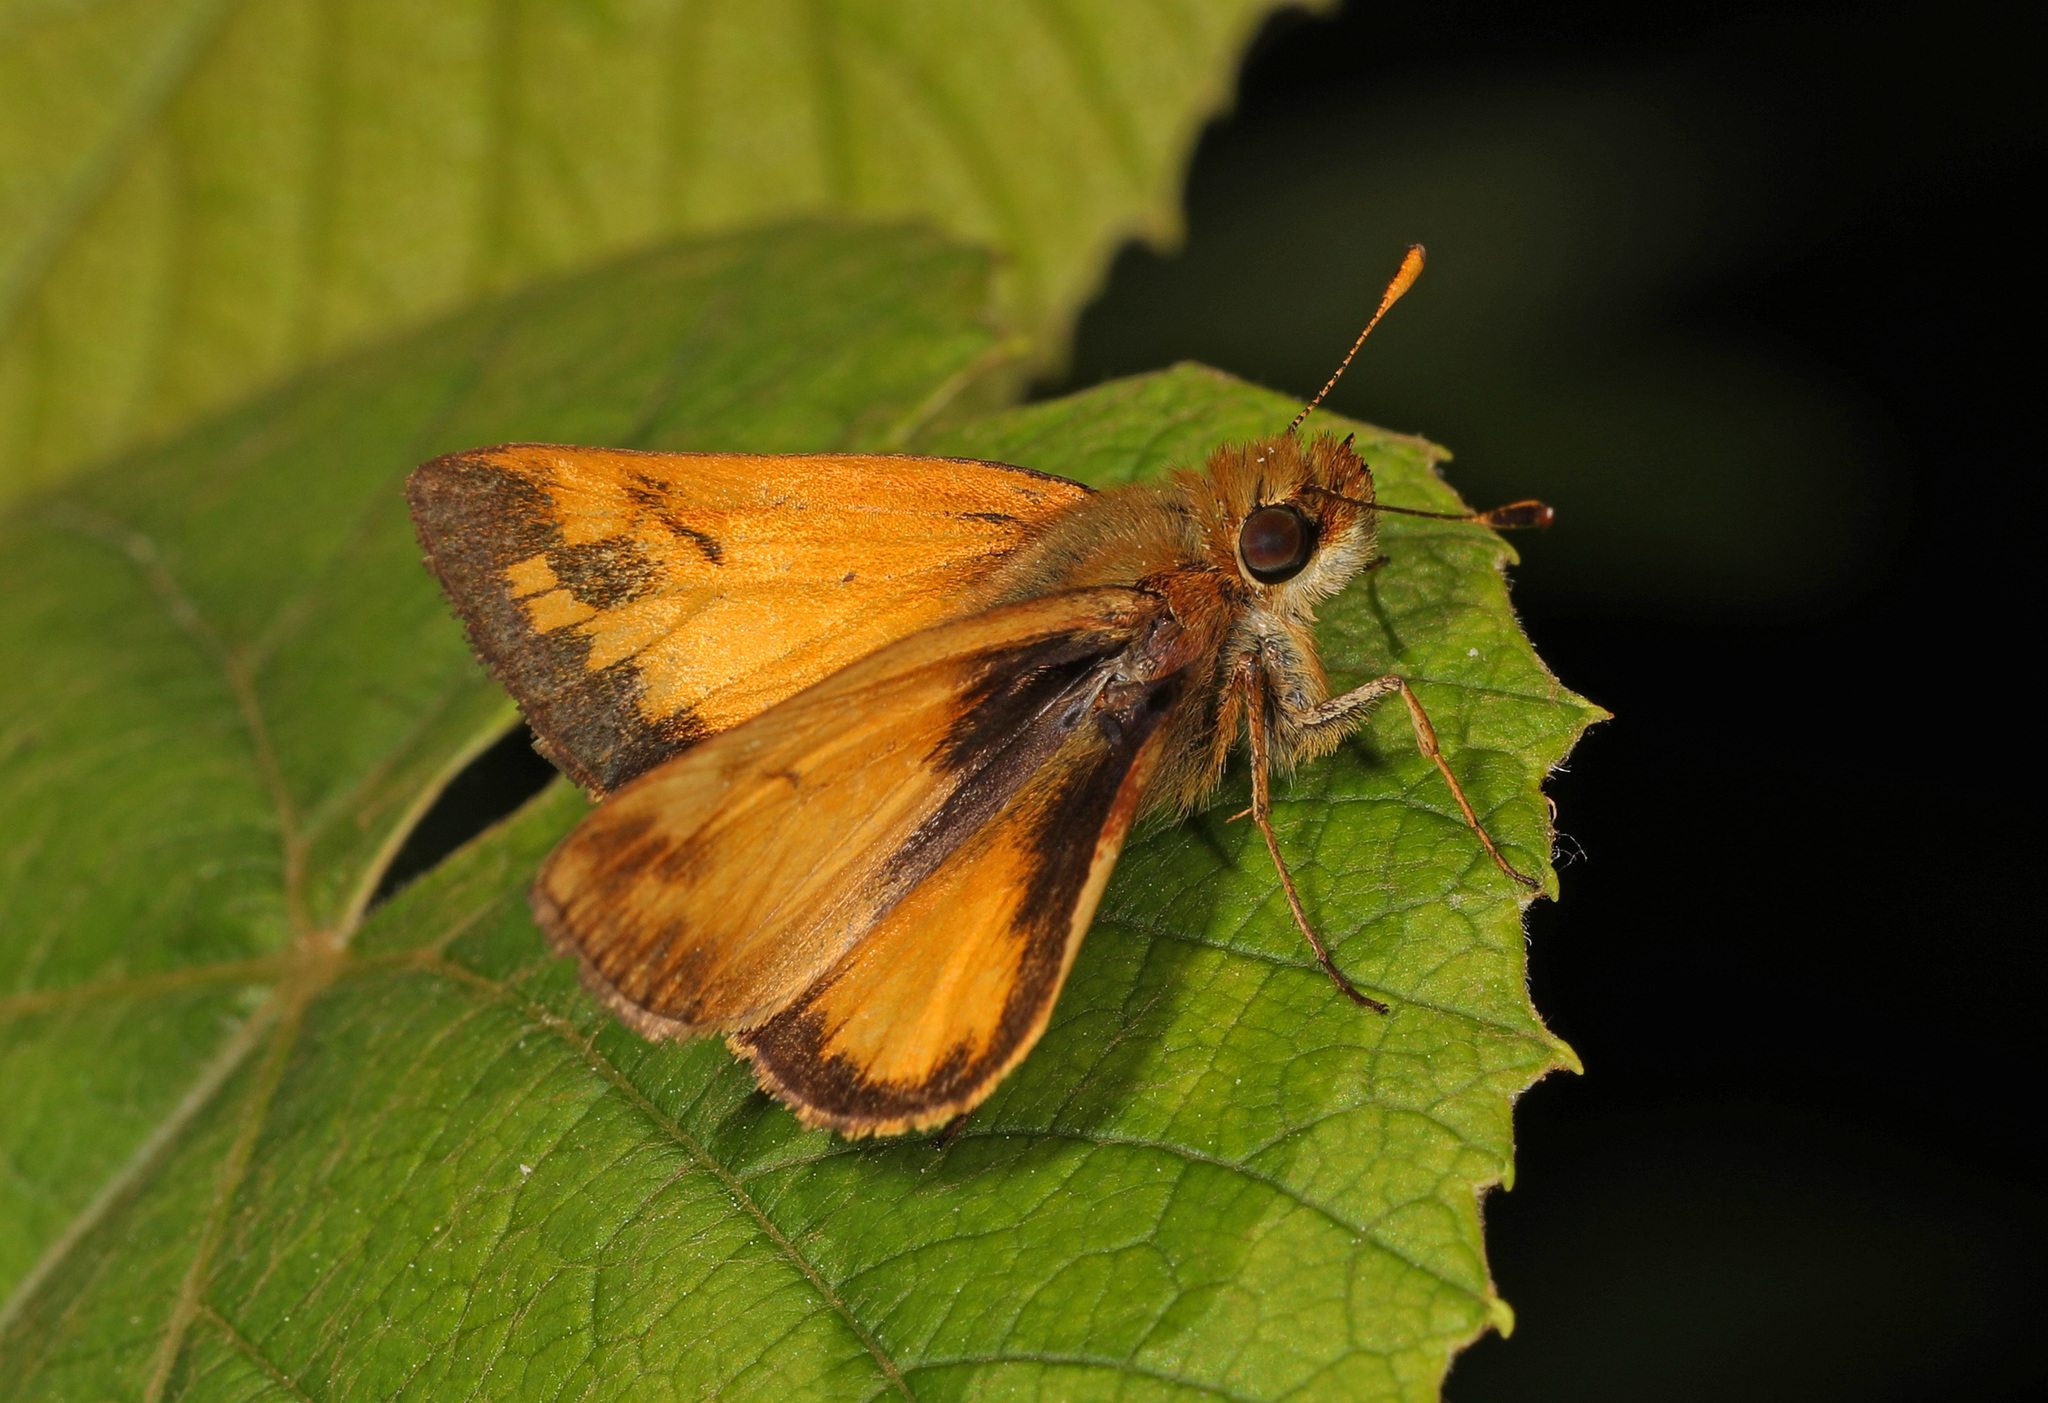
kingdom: Animalia
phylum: Arthropoda
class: Insecta
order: Lepidoptera
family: Hesperiidae
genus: Lon
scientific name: Lon zabulon
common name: Zabulon skipper
